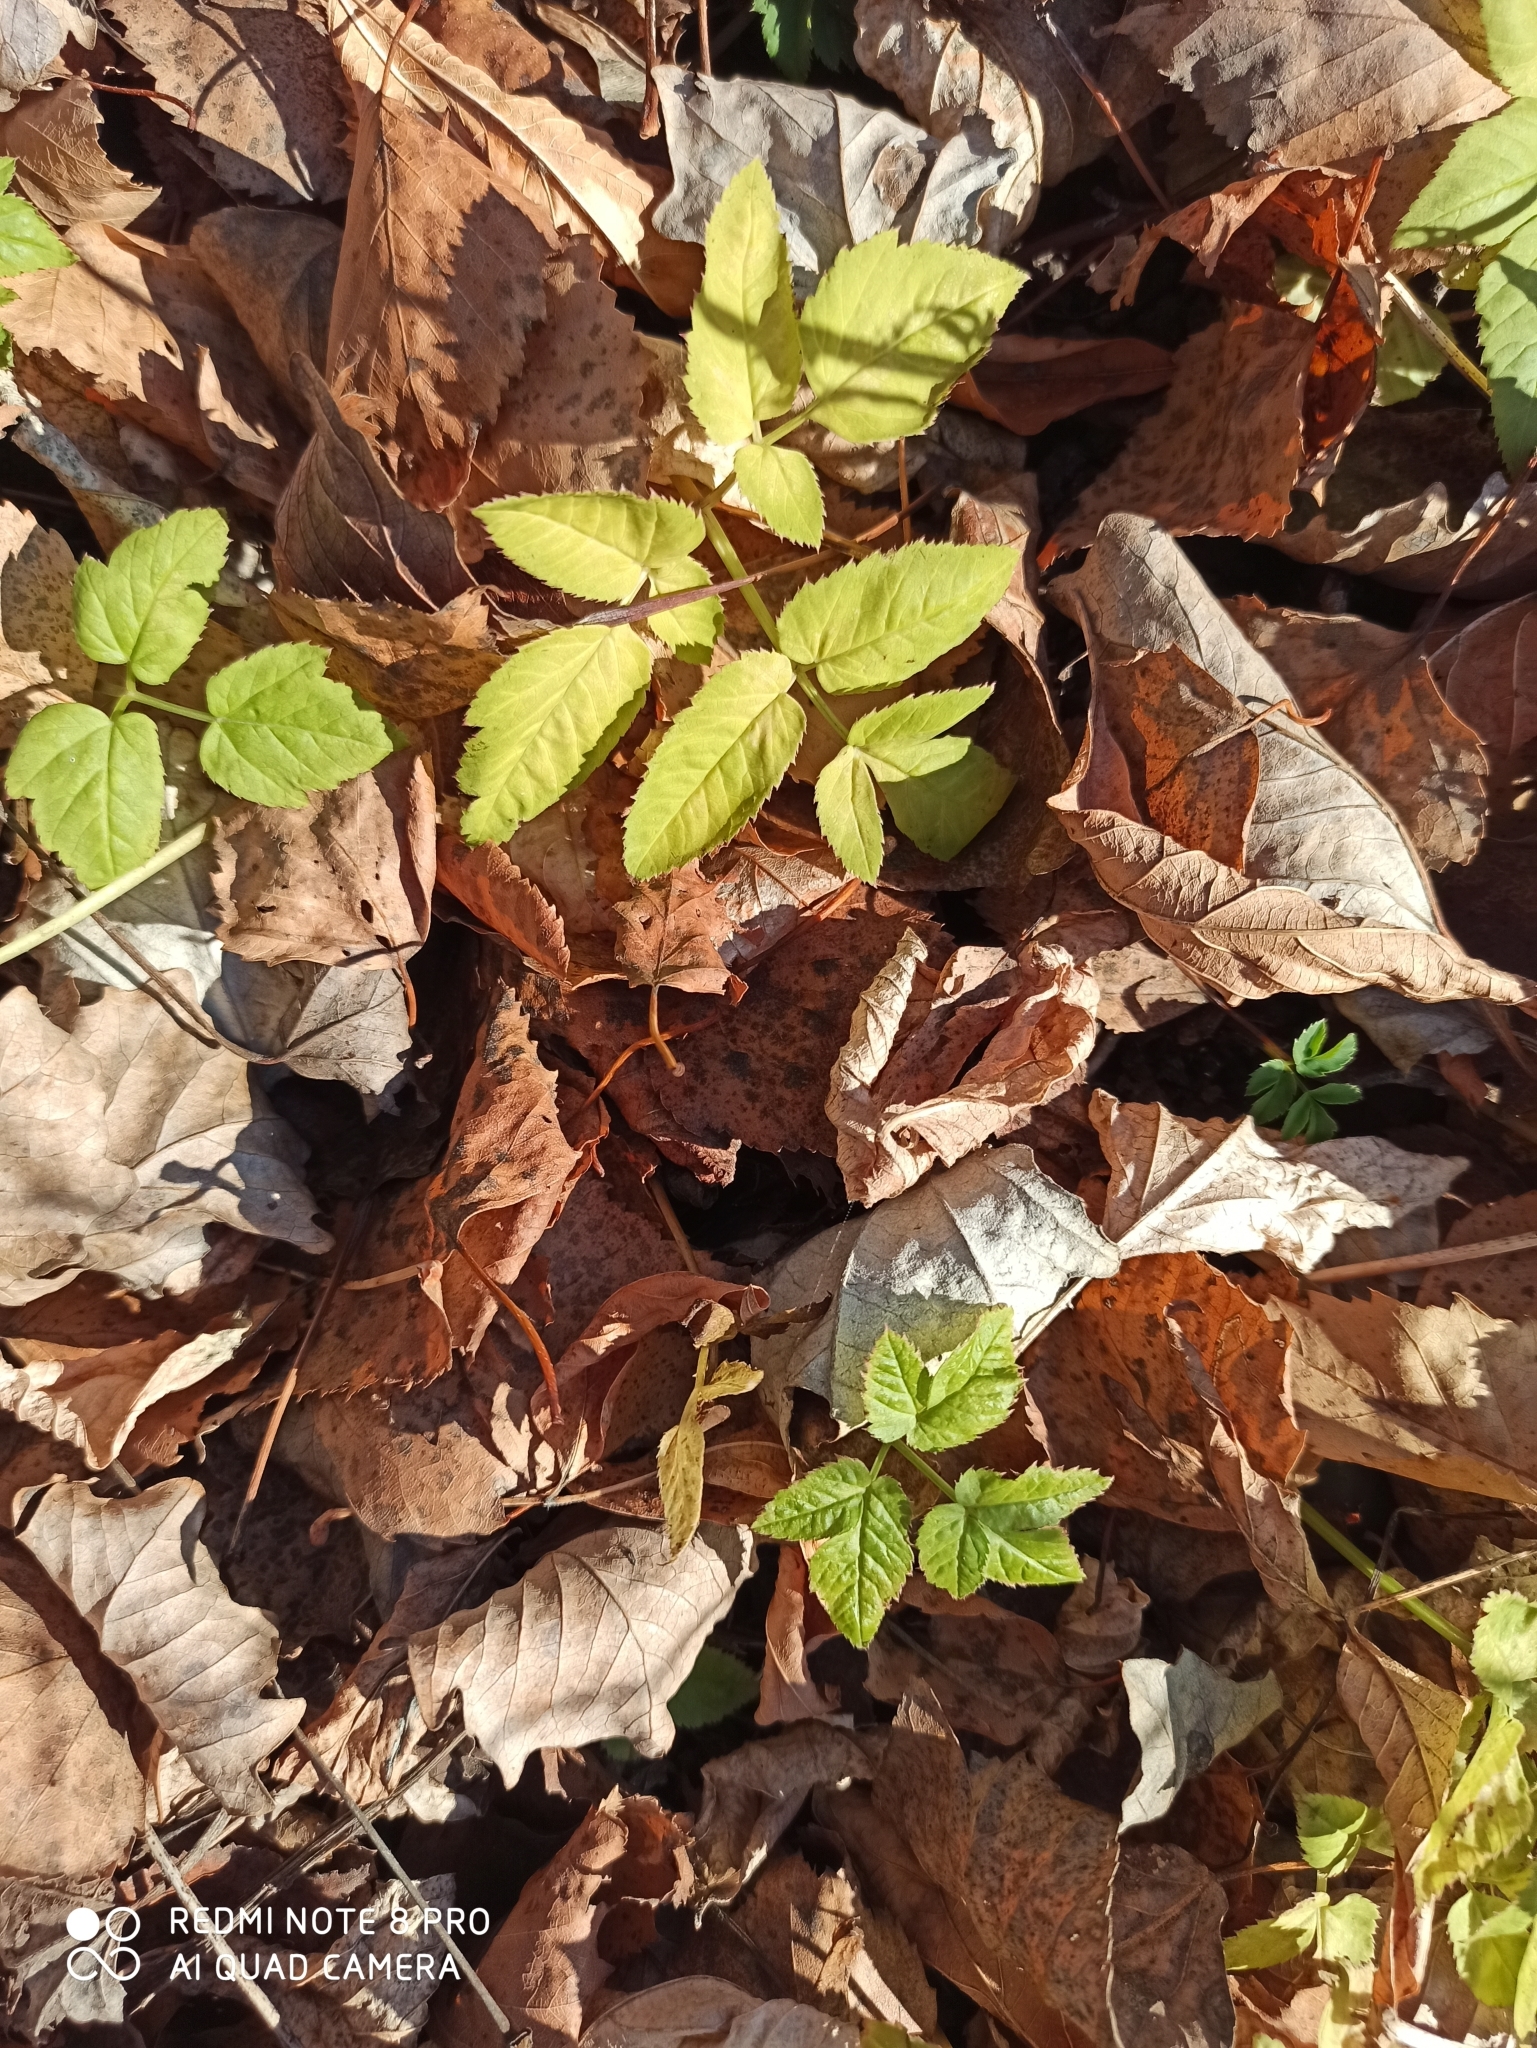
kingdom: Plantae
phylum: Tracheophyta
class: Magnoliopsida
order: Apiales
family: Apiaceae
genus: Aegopodium
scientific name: Aegopodium podagraria
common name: Ground-elder
